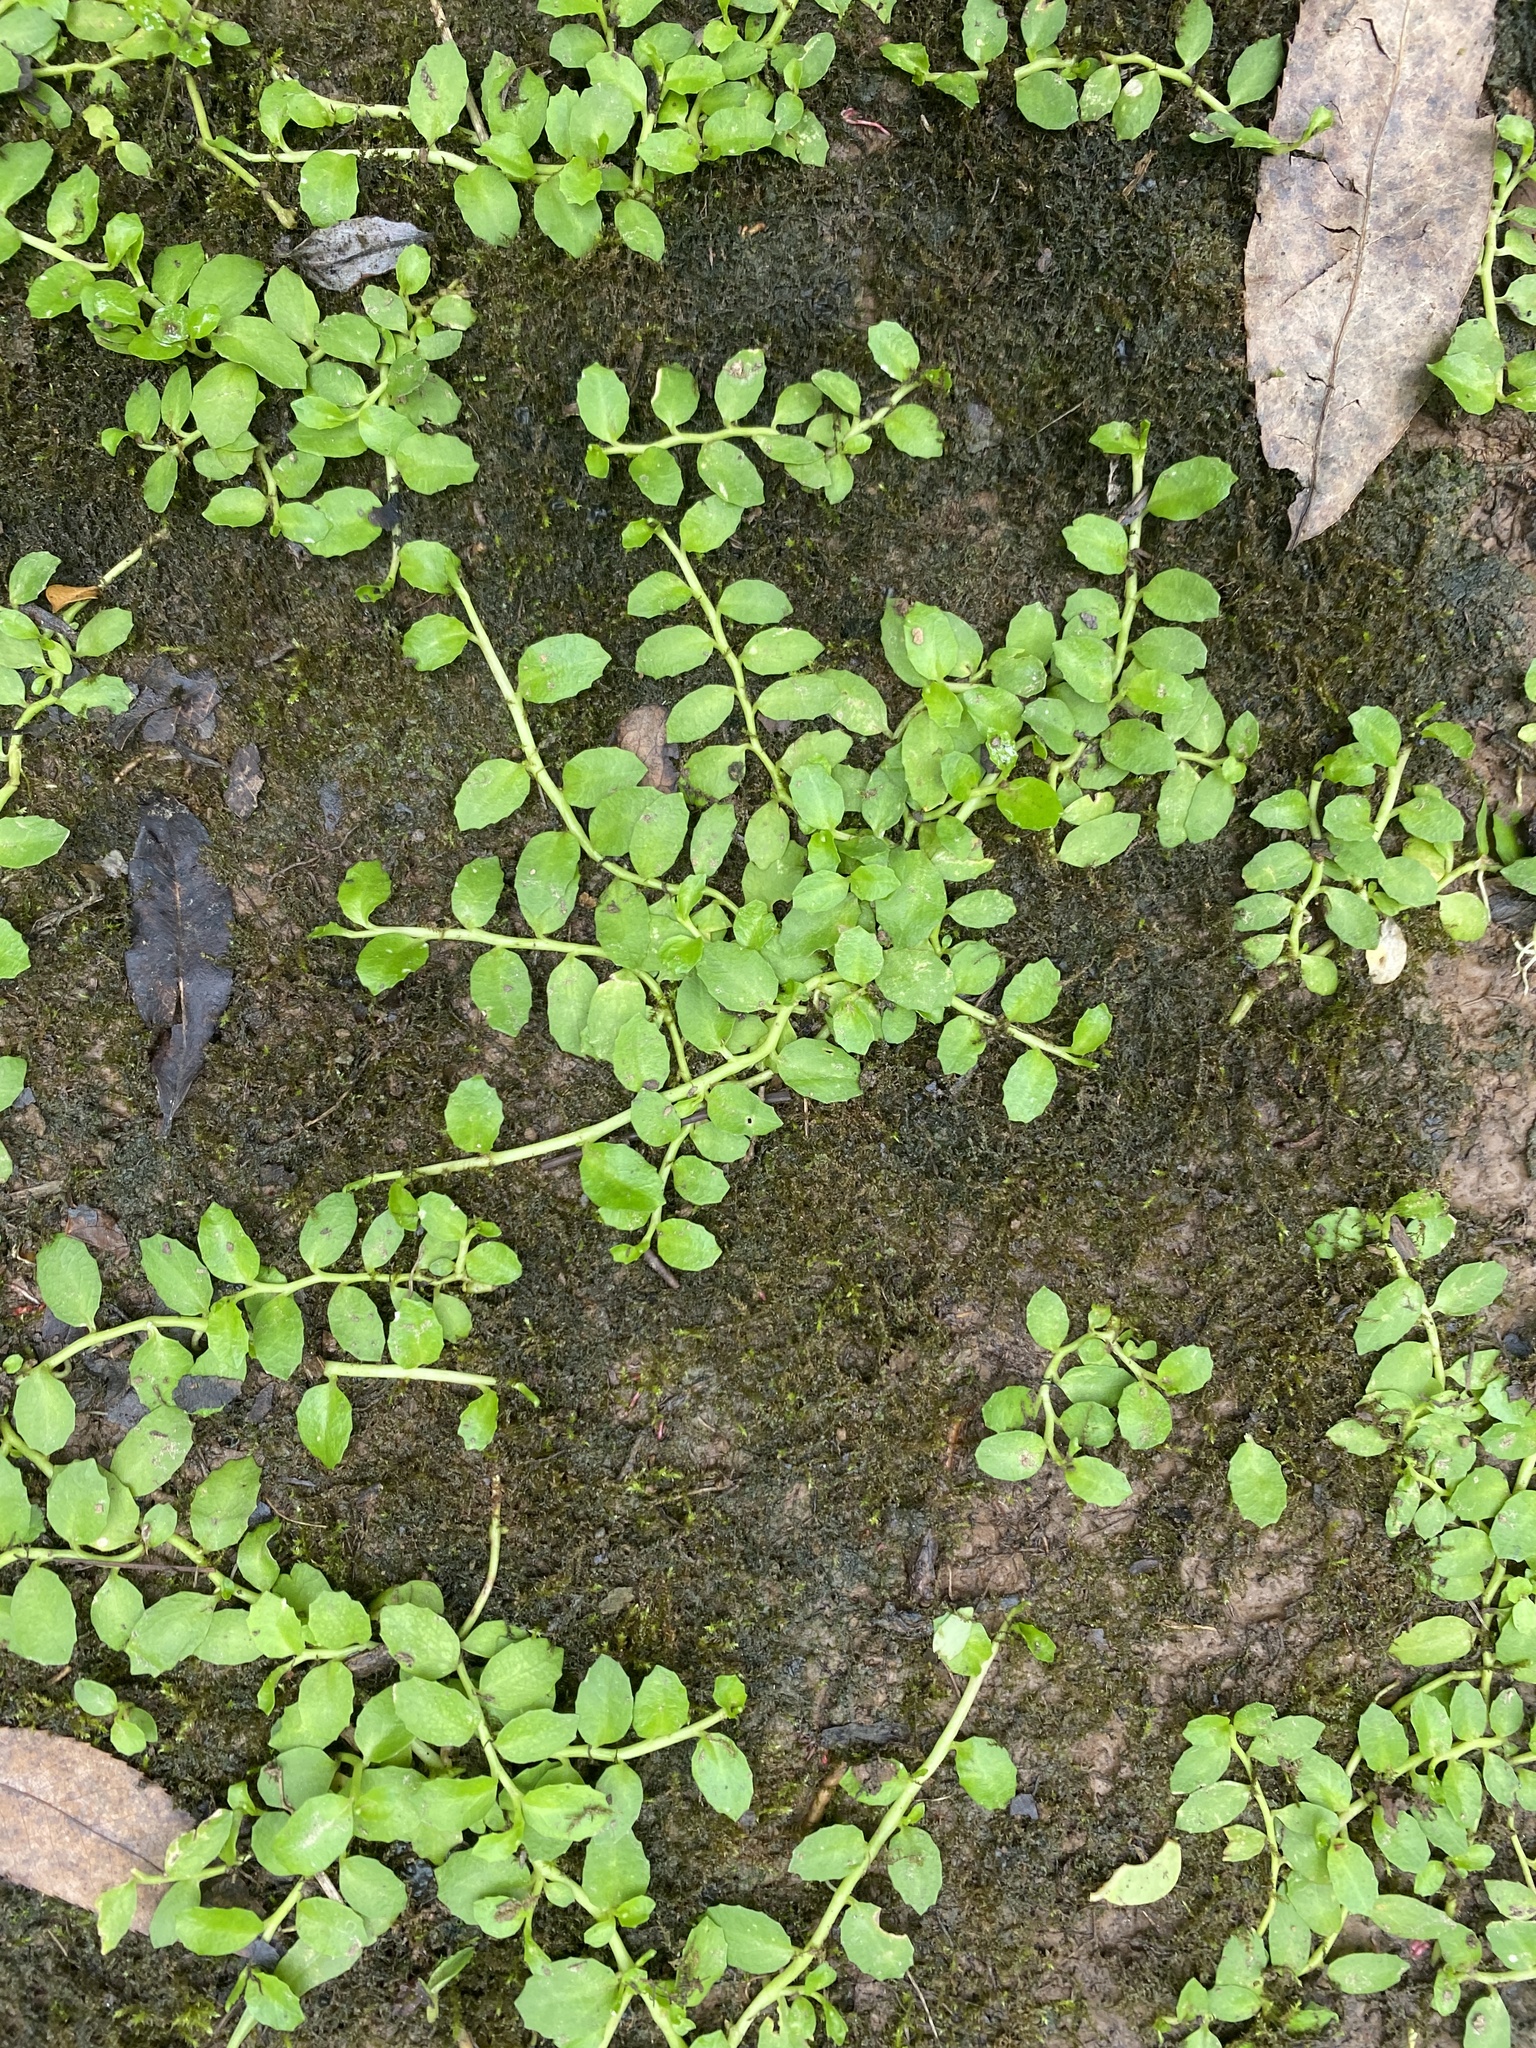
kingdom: Plantae
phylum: Tracheophyta
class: Magnoliopsida
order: Asterales
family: Campanulaceae
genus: Lobelia
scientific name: Lobelia hederacea
